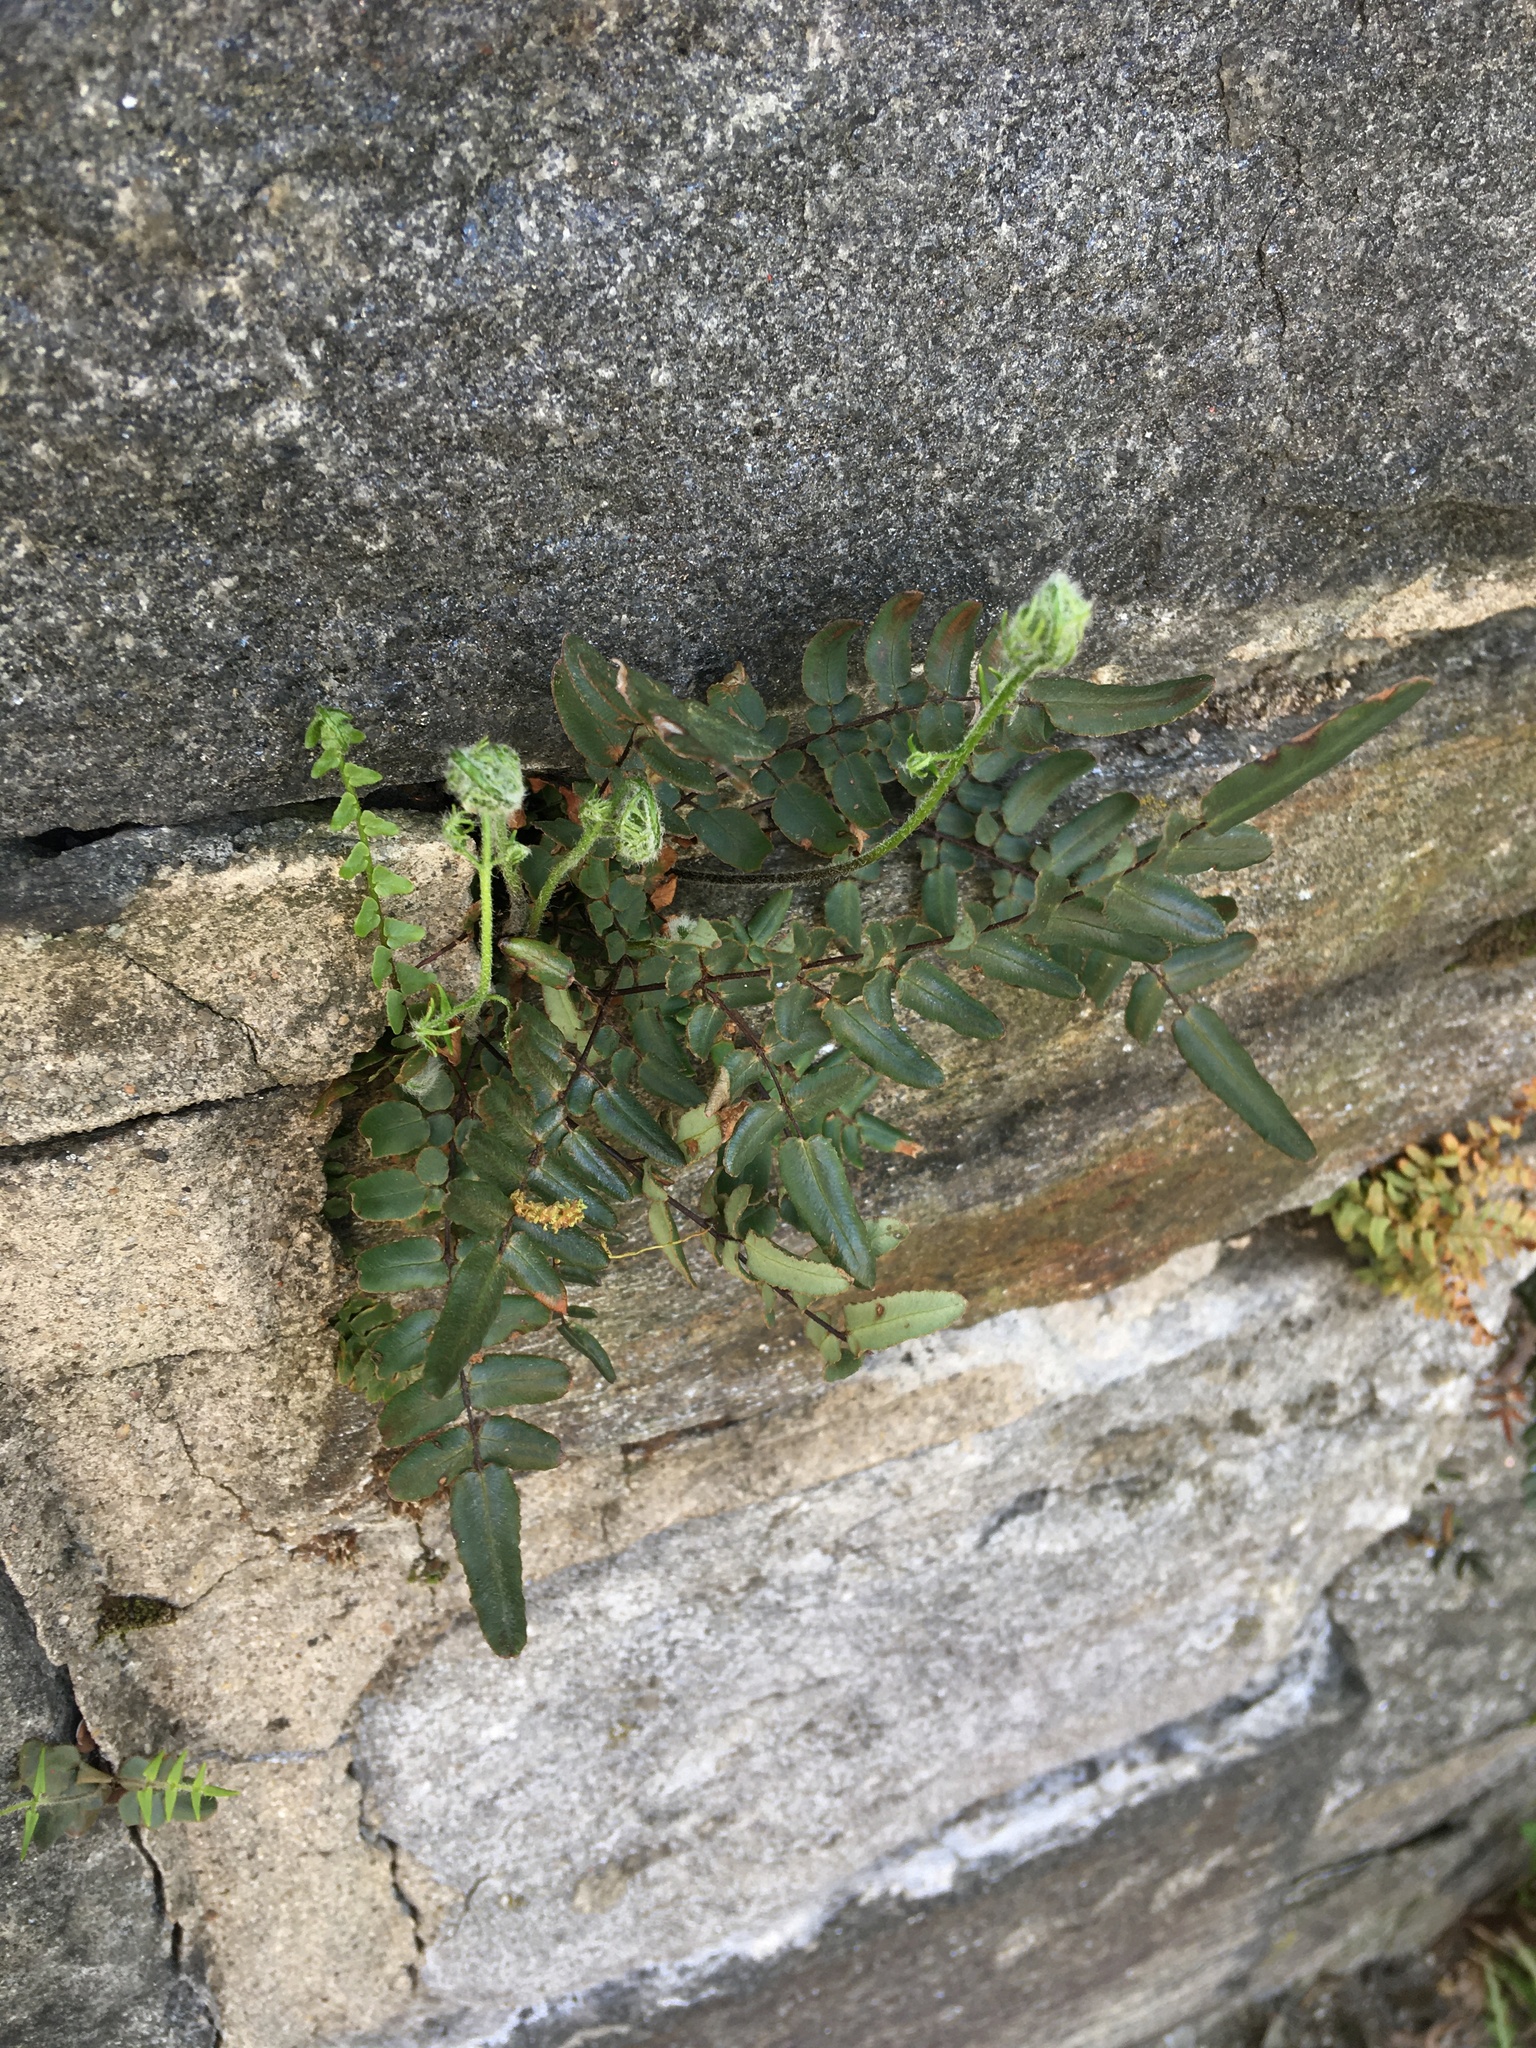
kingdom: Plantae
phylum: Tracheophyta
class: Polypodiopsida
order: Polypodiales
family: Pteridaceae
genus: Pellaea
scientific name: Pellaea atropurpurea
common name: Hairy cliffbrake
